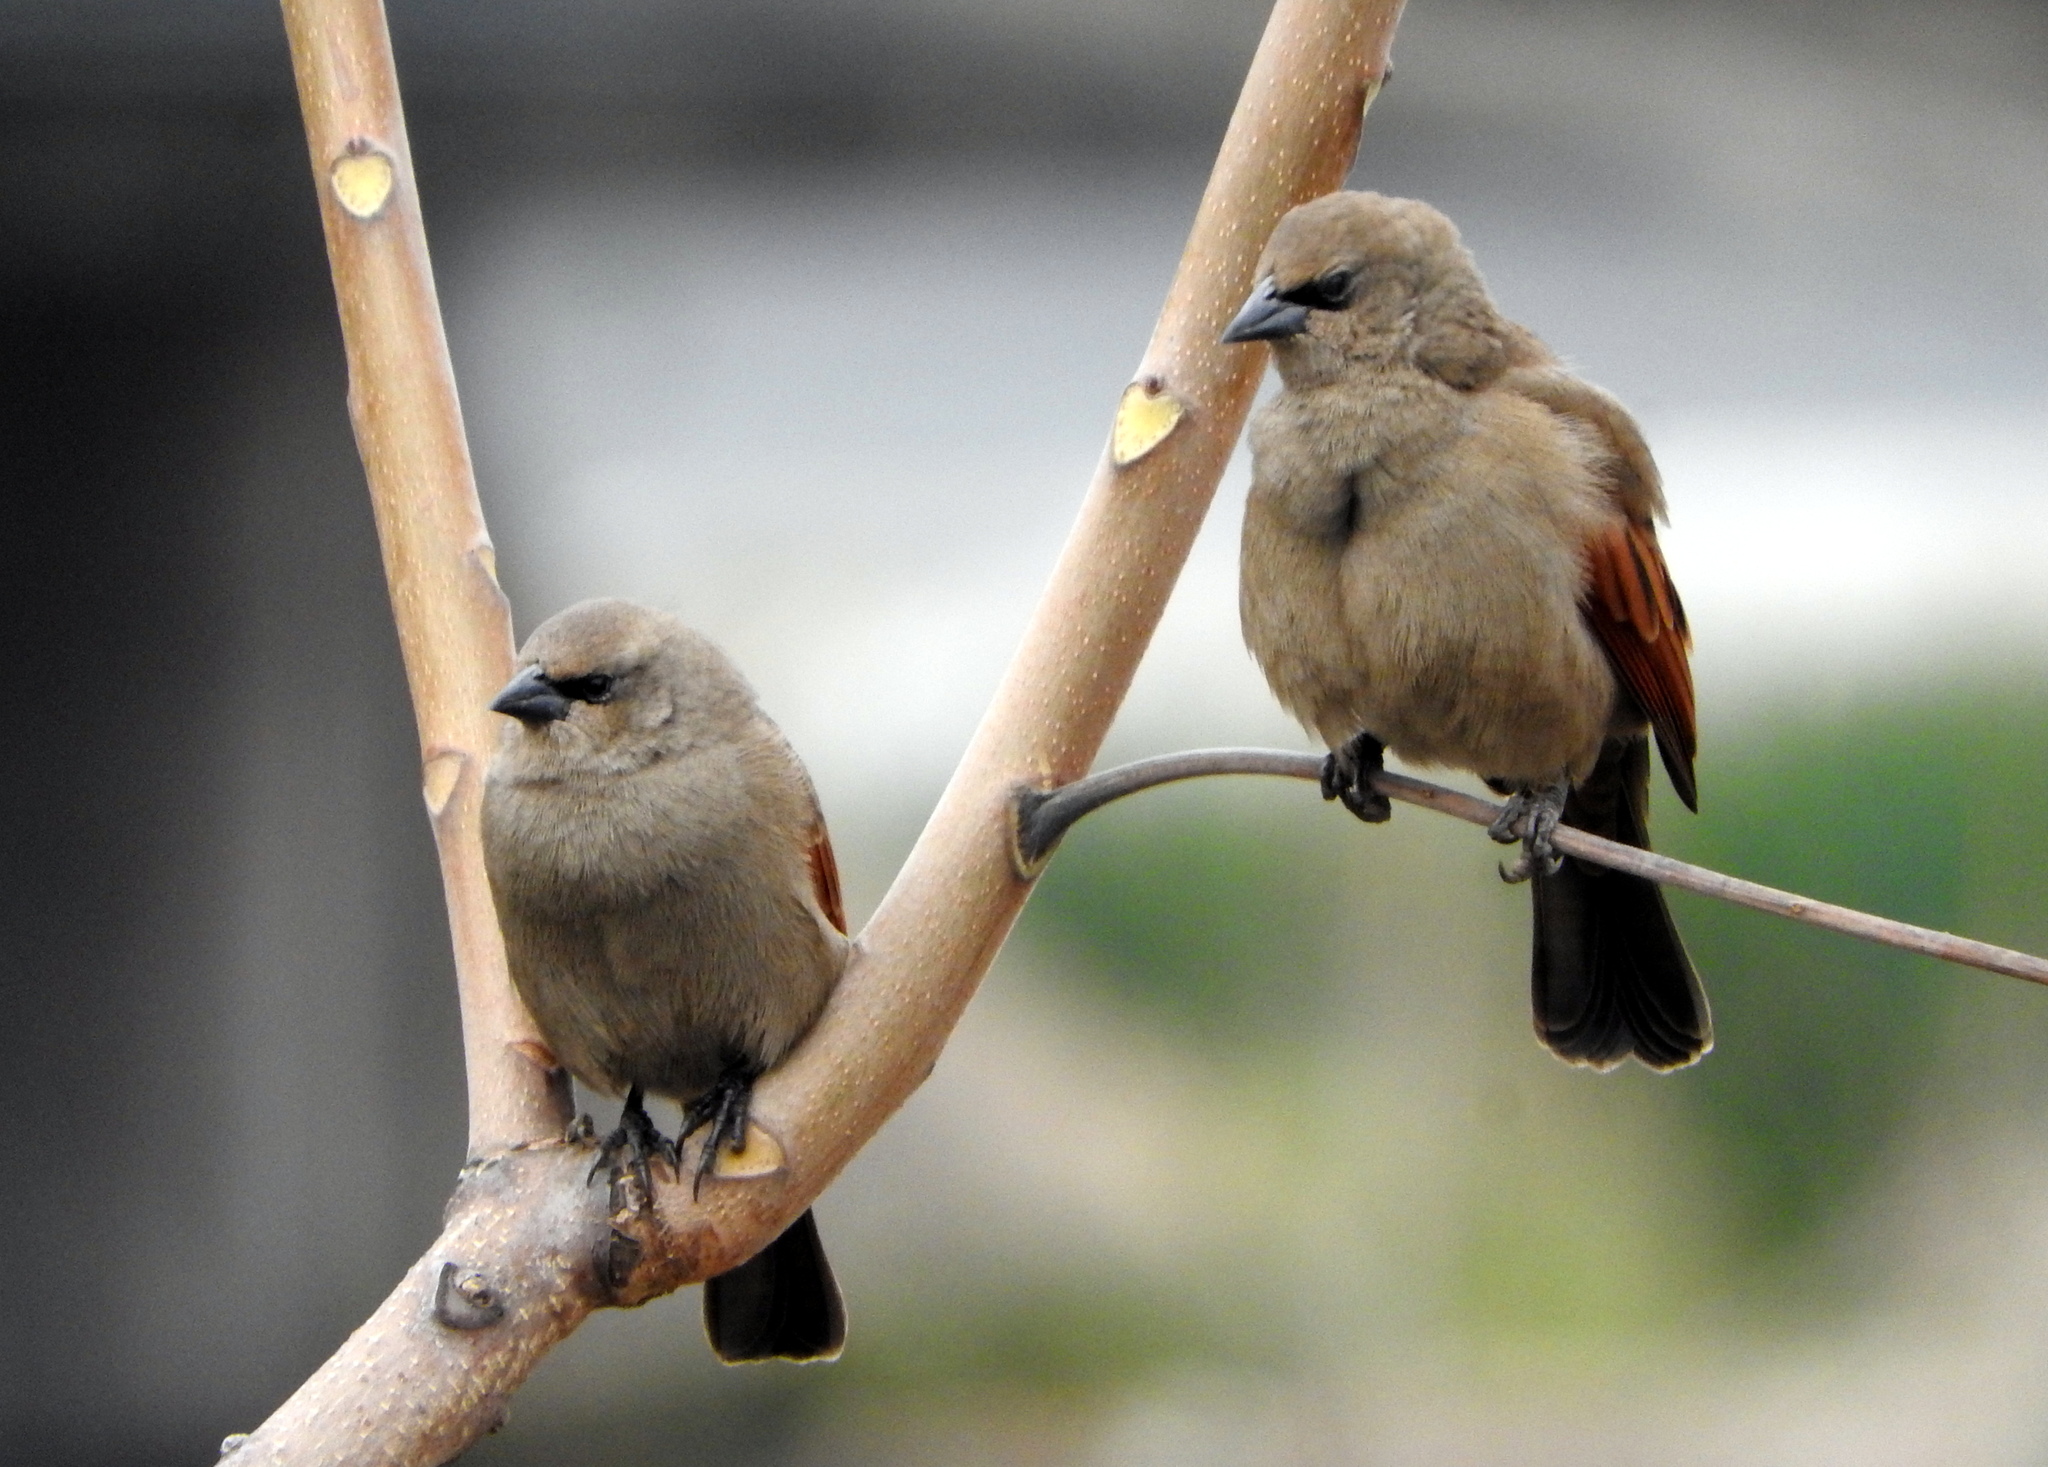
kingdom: Animalia
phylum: Chordata
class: Aves
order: Passeriformes
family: Icteridae
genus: Agelaioides
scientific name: Agelaioides badius
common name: Baywing
